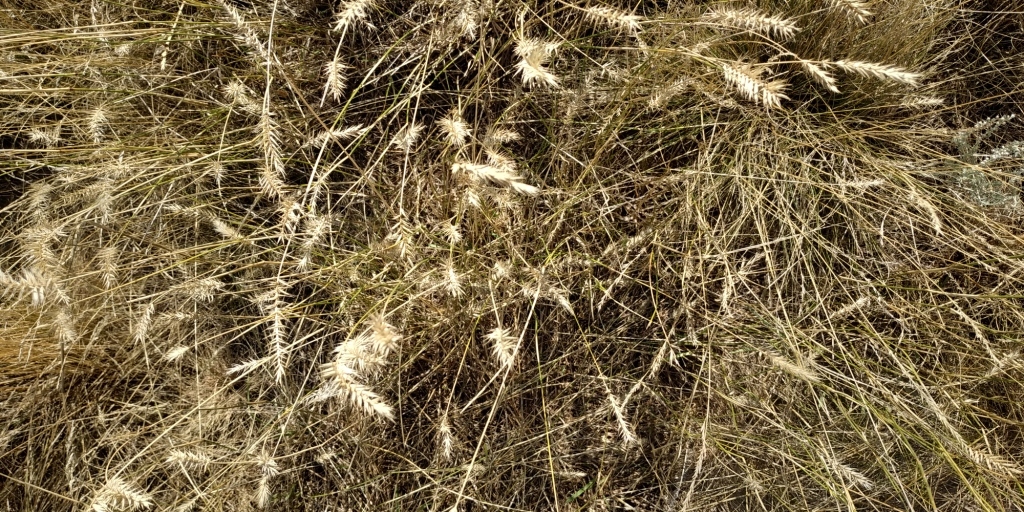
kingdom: Plantae
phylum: Tracheophyta
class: Liliopsida
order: Poales
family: Poaceae
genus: Agropyron
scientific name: Agropyron cristatum
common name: Crested wheatgrass
